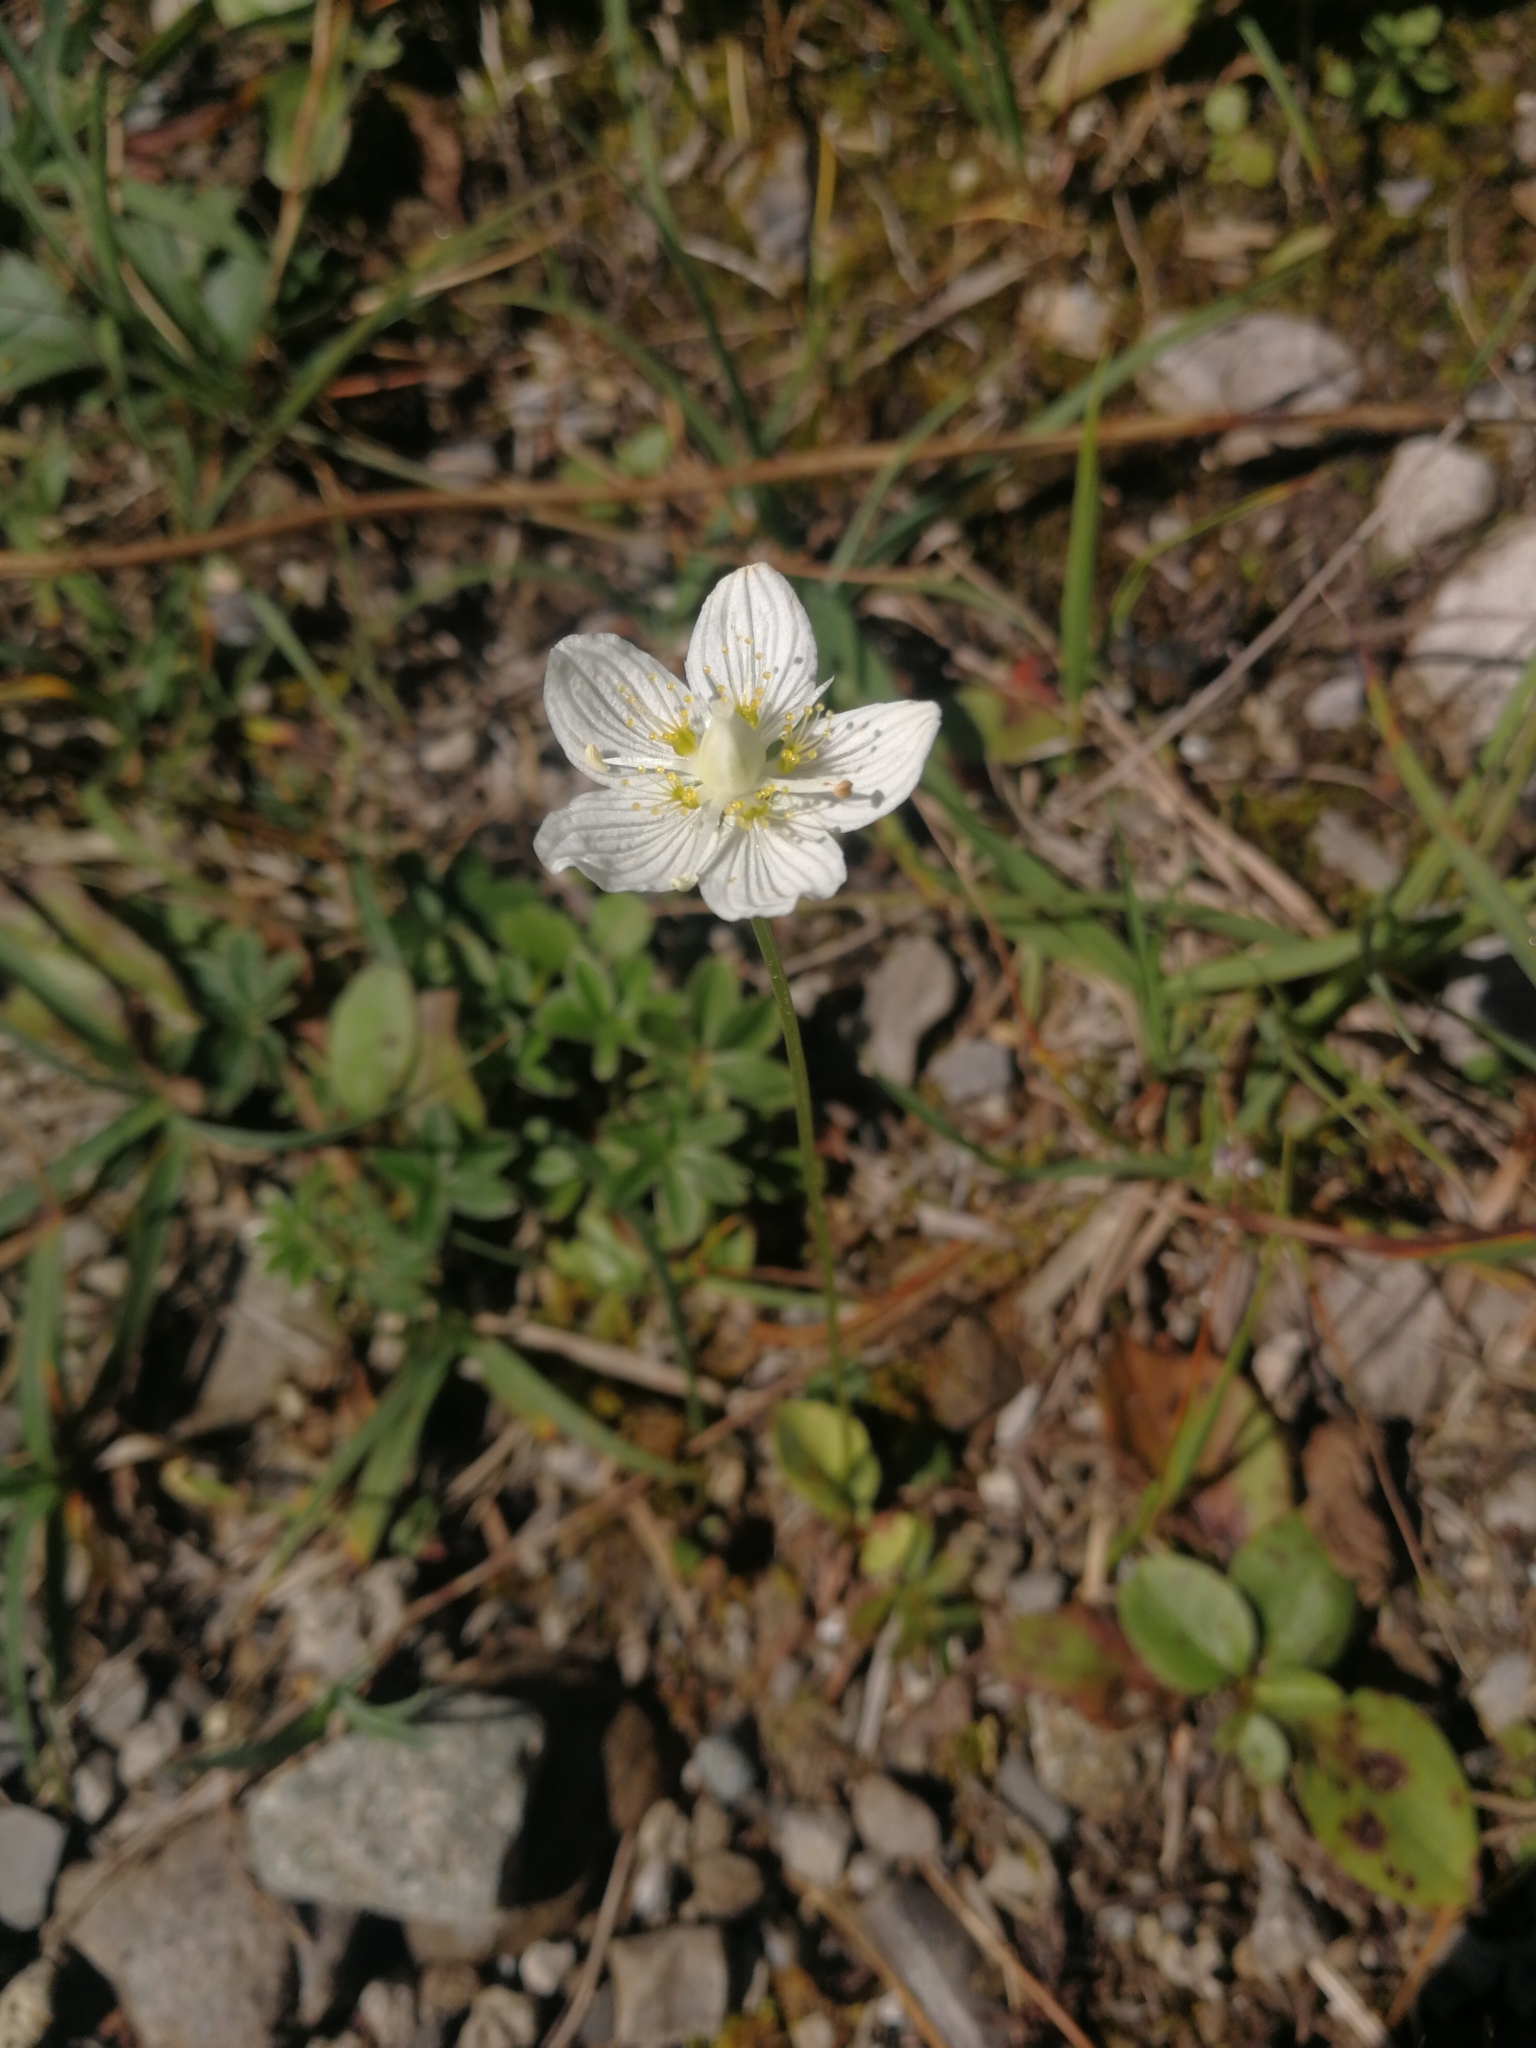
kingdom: Plantae
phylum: Tracheophyta
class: Magnoliopsida
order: Celastrales
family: Parnassiaceae
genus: Parnassia
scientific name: Parnassia palustris
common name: Grass-of-parnassus
